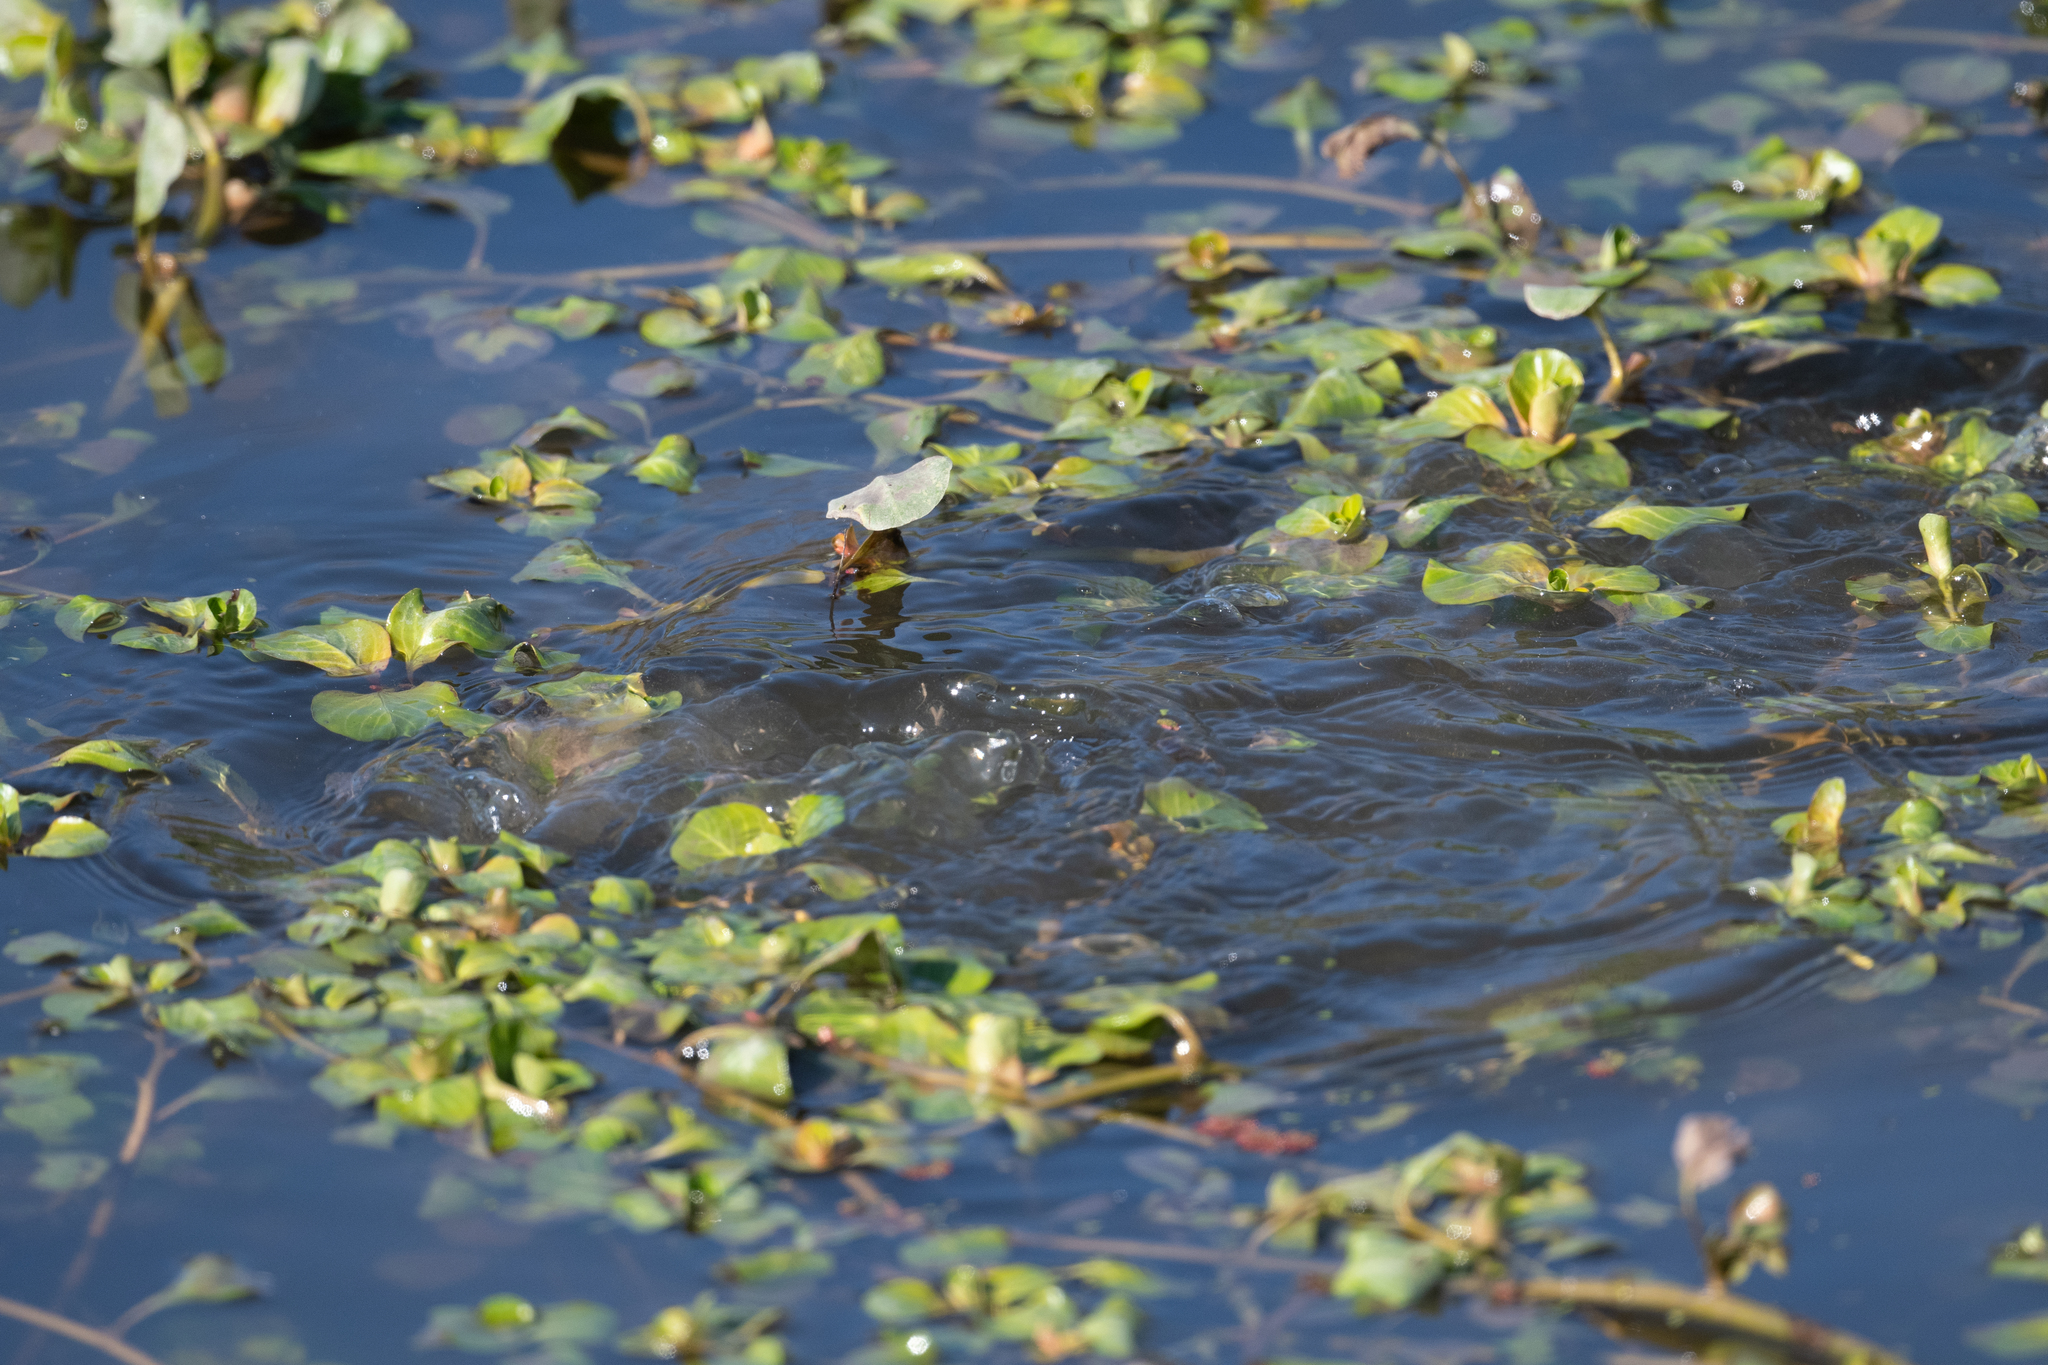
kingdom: Animalia
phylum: Chordata
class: Aves
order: Podicipediformes
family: Podicipedidae
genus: Podilymbus
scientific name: Podilymbus podiceps
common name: Pied-billed grebe
